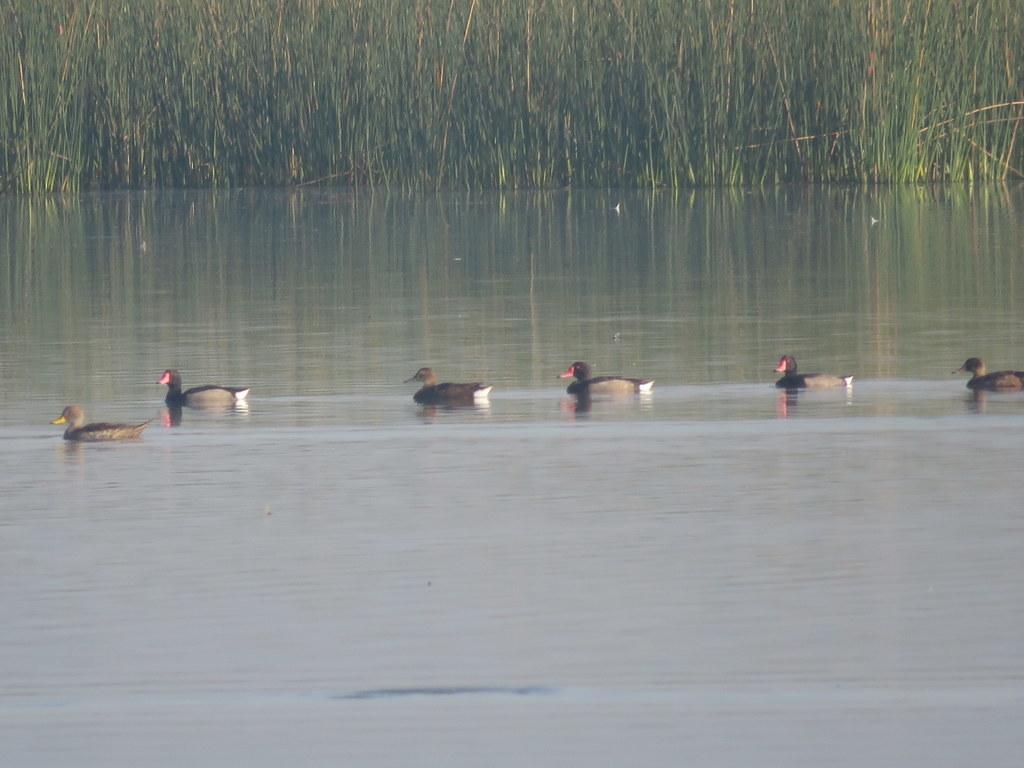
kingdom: Animalia
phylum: Chordata
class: Aves
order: Anseriformes
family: Anatidae
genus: Netta
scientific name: Netta peposaca
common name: Rosy-billed pochard
